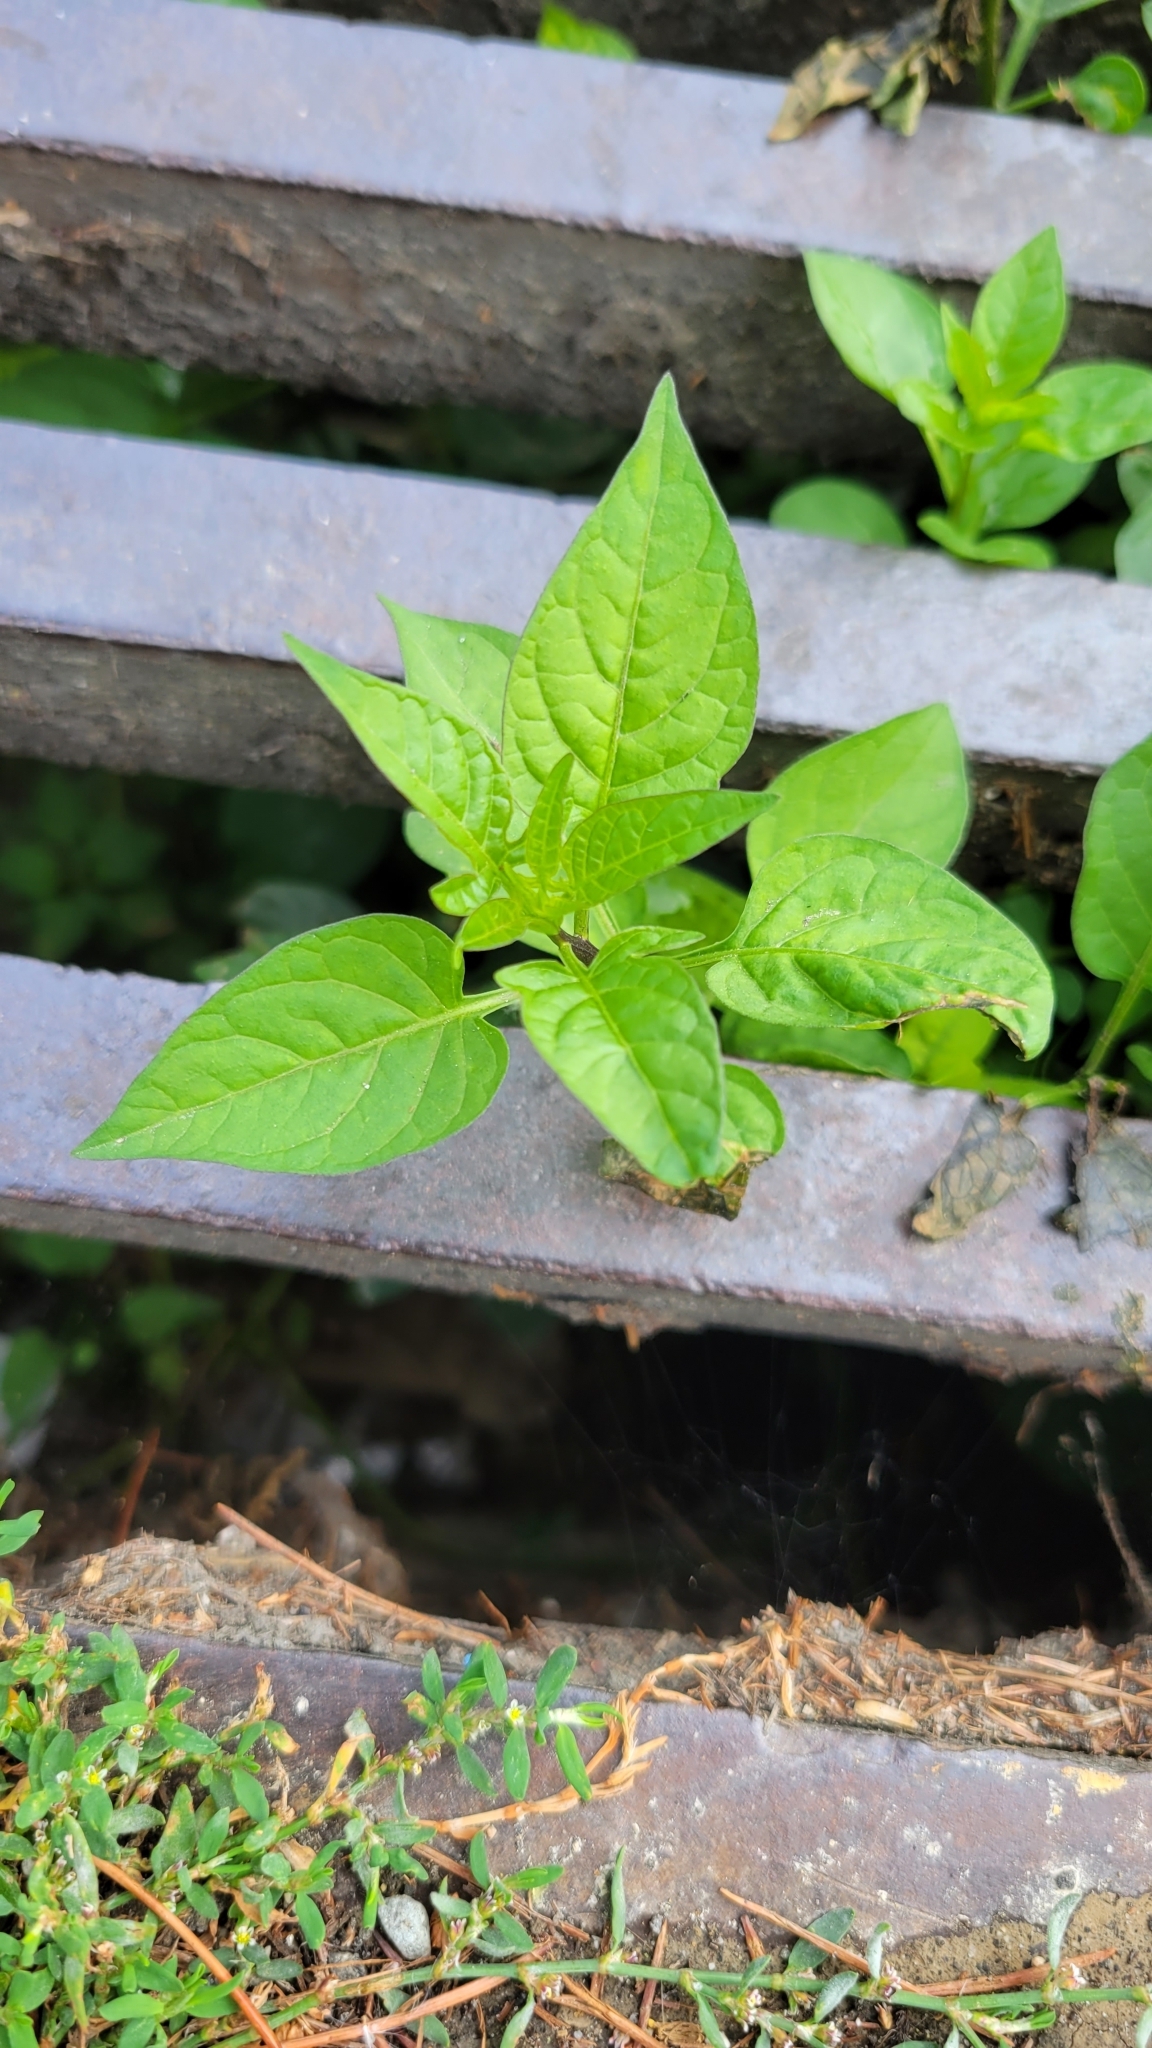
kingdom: Plantae
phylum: Tracheophyta
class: Magnoliopsida
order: Solanales
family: Solanaceae
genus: Solanum
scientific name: Solanum dulcamara
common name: Climbing nightshade
